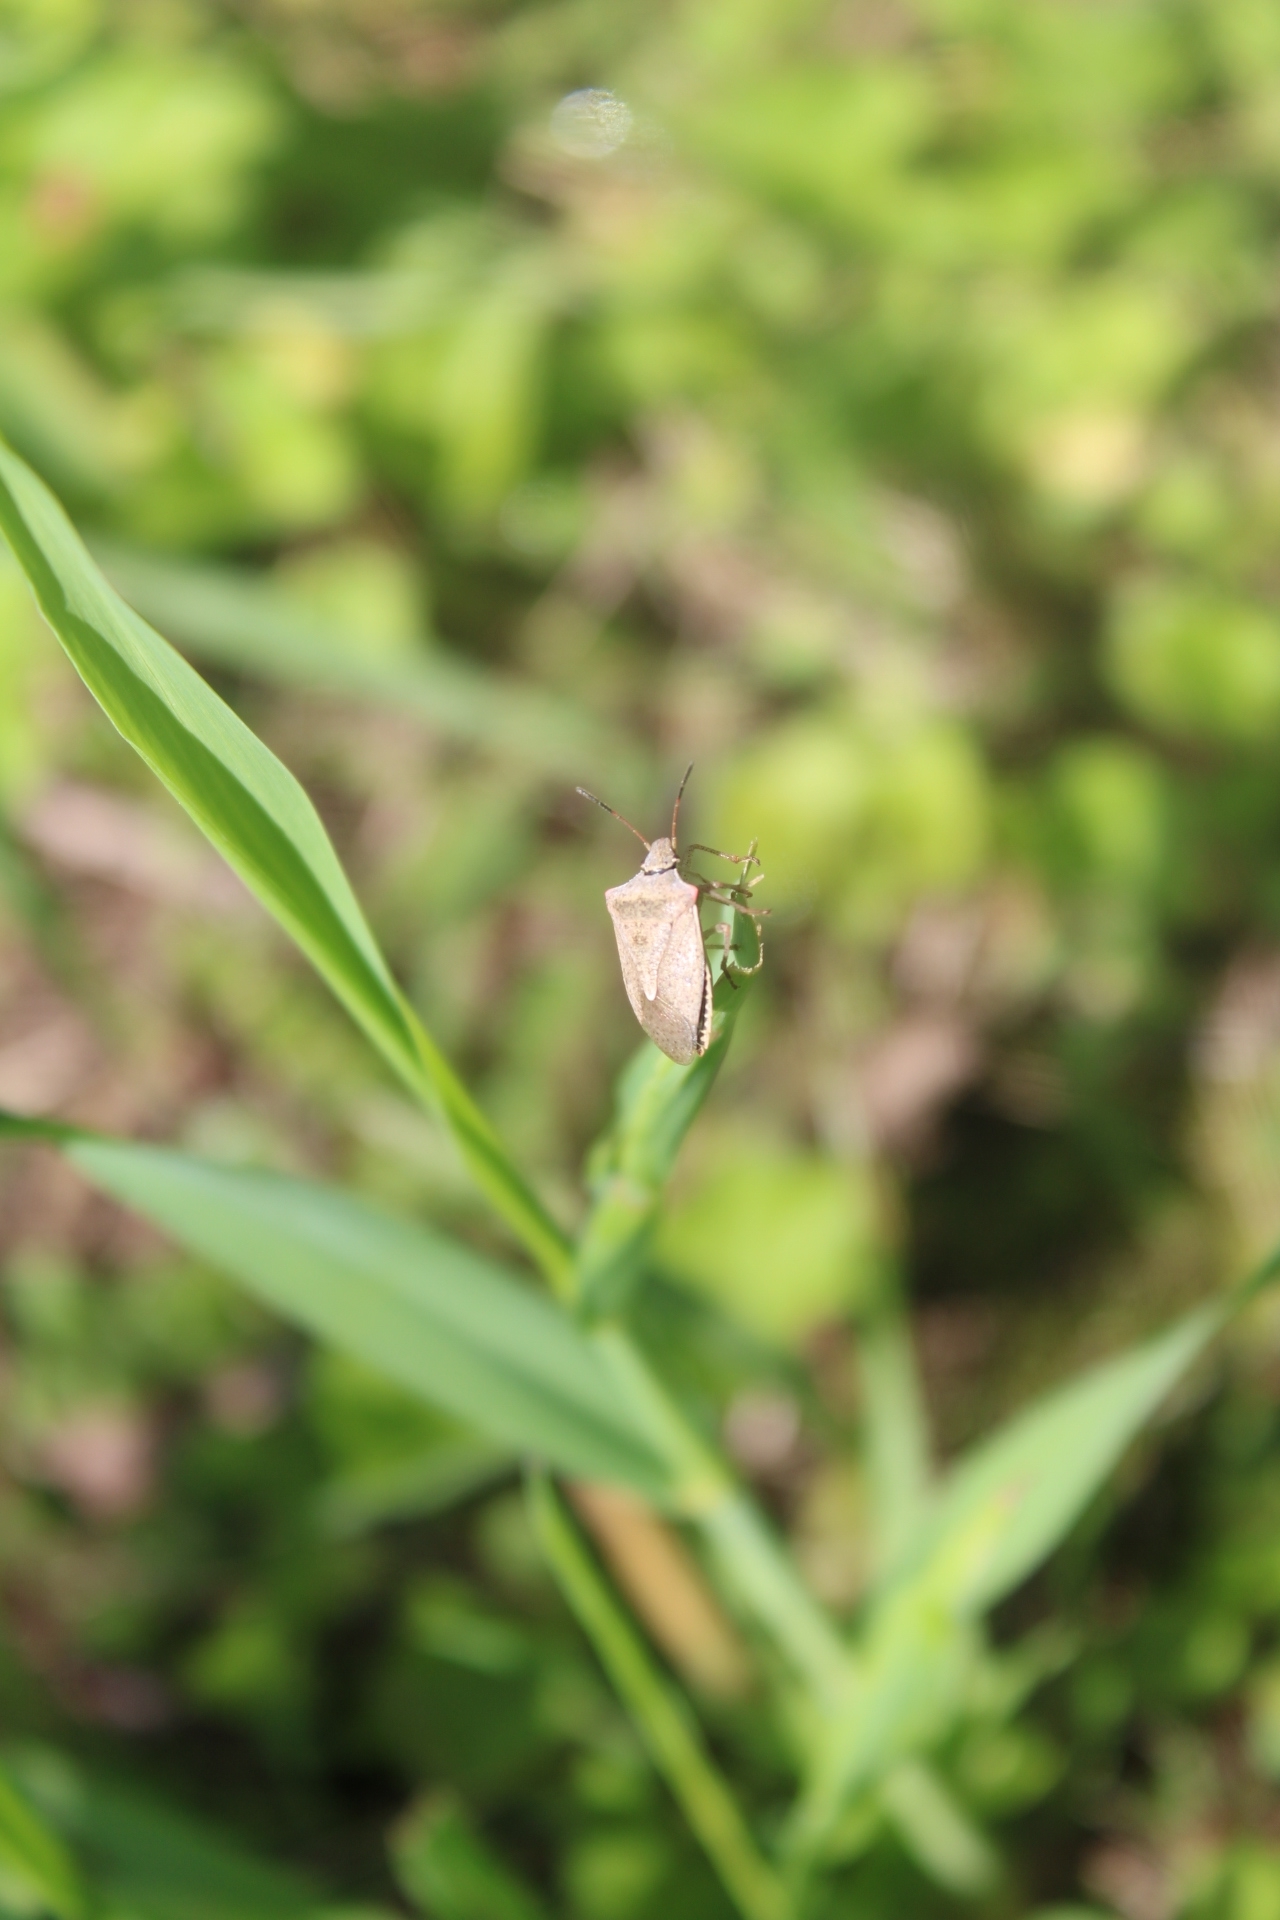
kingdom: Animalia
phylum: Arthropoda
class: Insecta
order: Hemiptera
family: Pentatomidae
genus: Euschistus
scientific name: Euschistus
